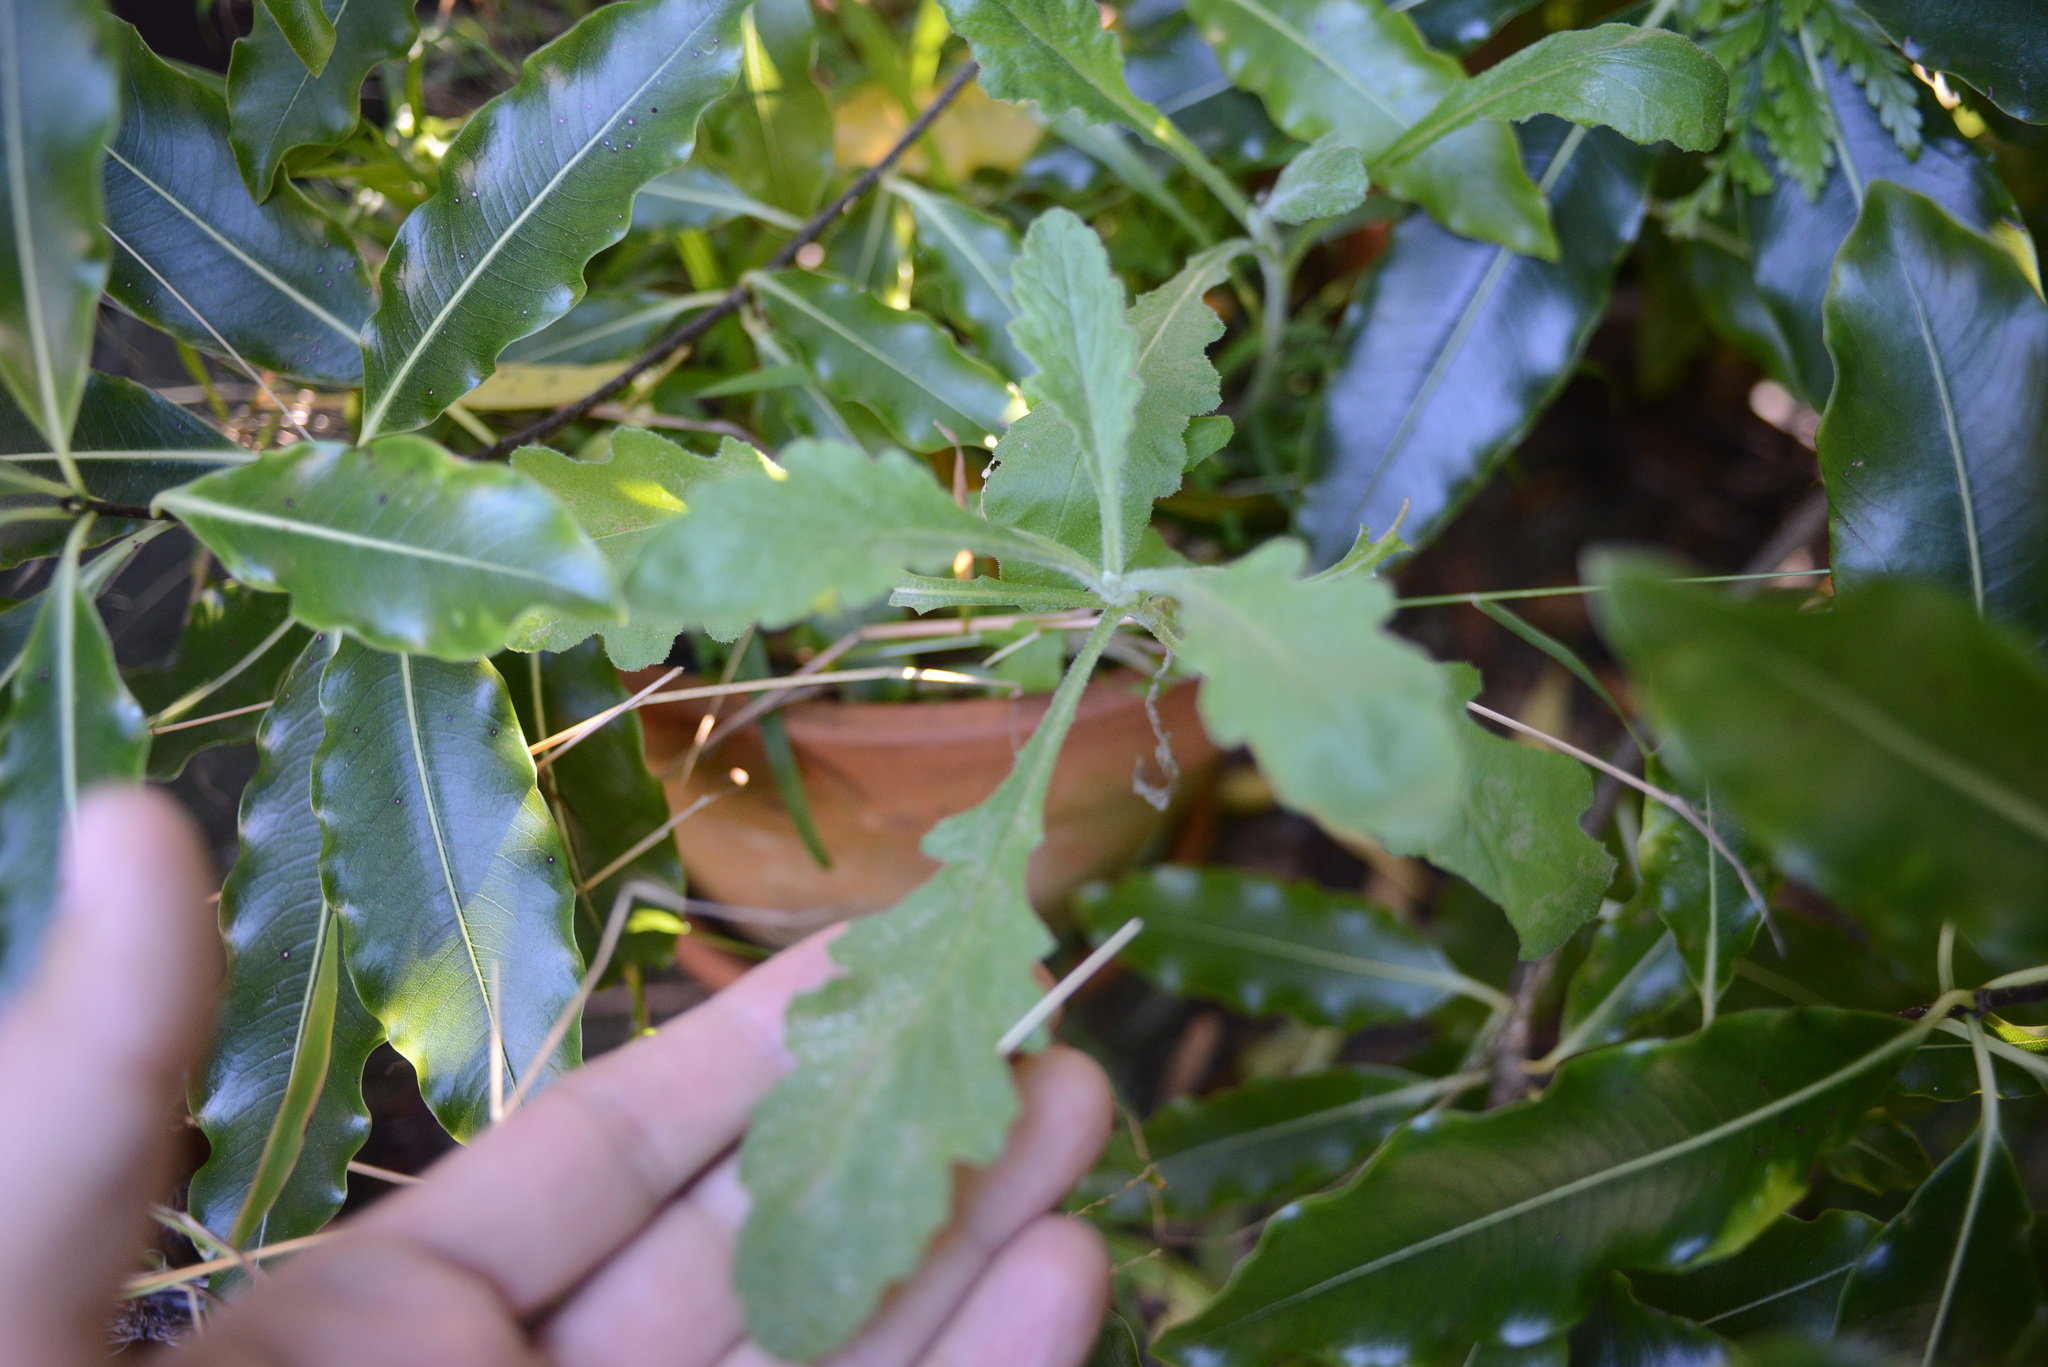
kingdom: Plantae
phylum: Tracheophyta
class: Magnoliopsida
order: Asterales
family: Asteraceae
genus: Senecio
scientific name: Senecio glomeratus
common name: Cutleaf burnweed
